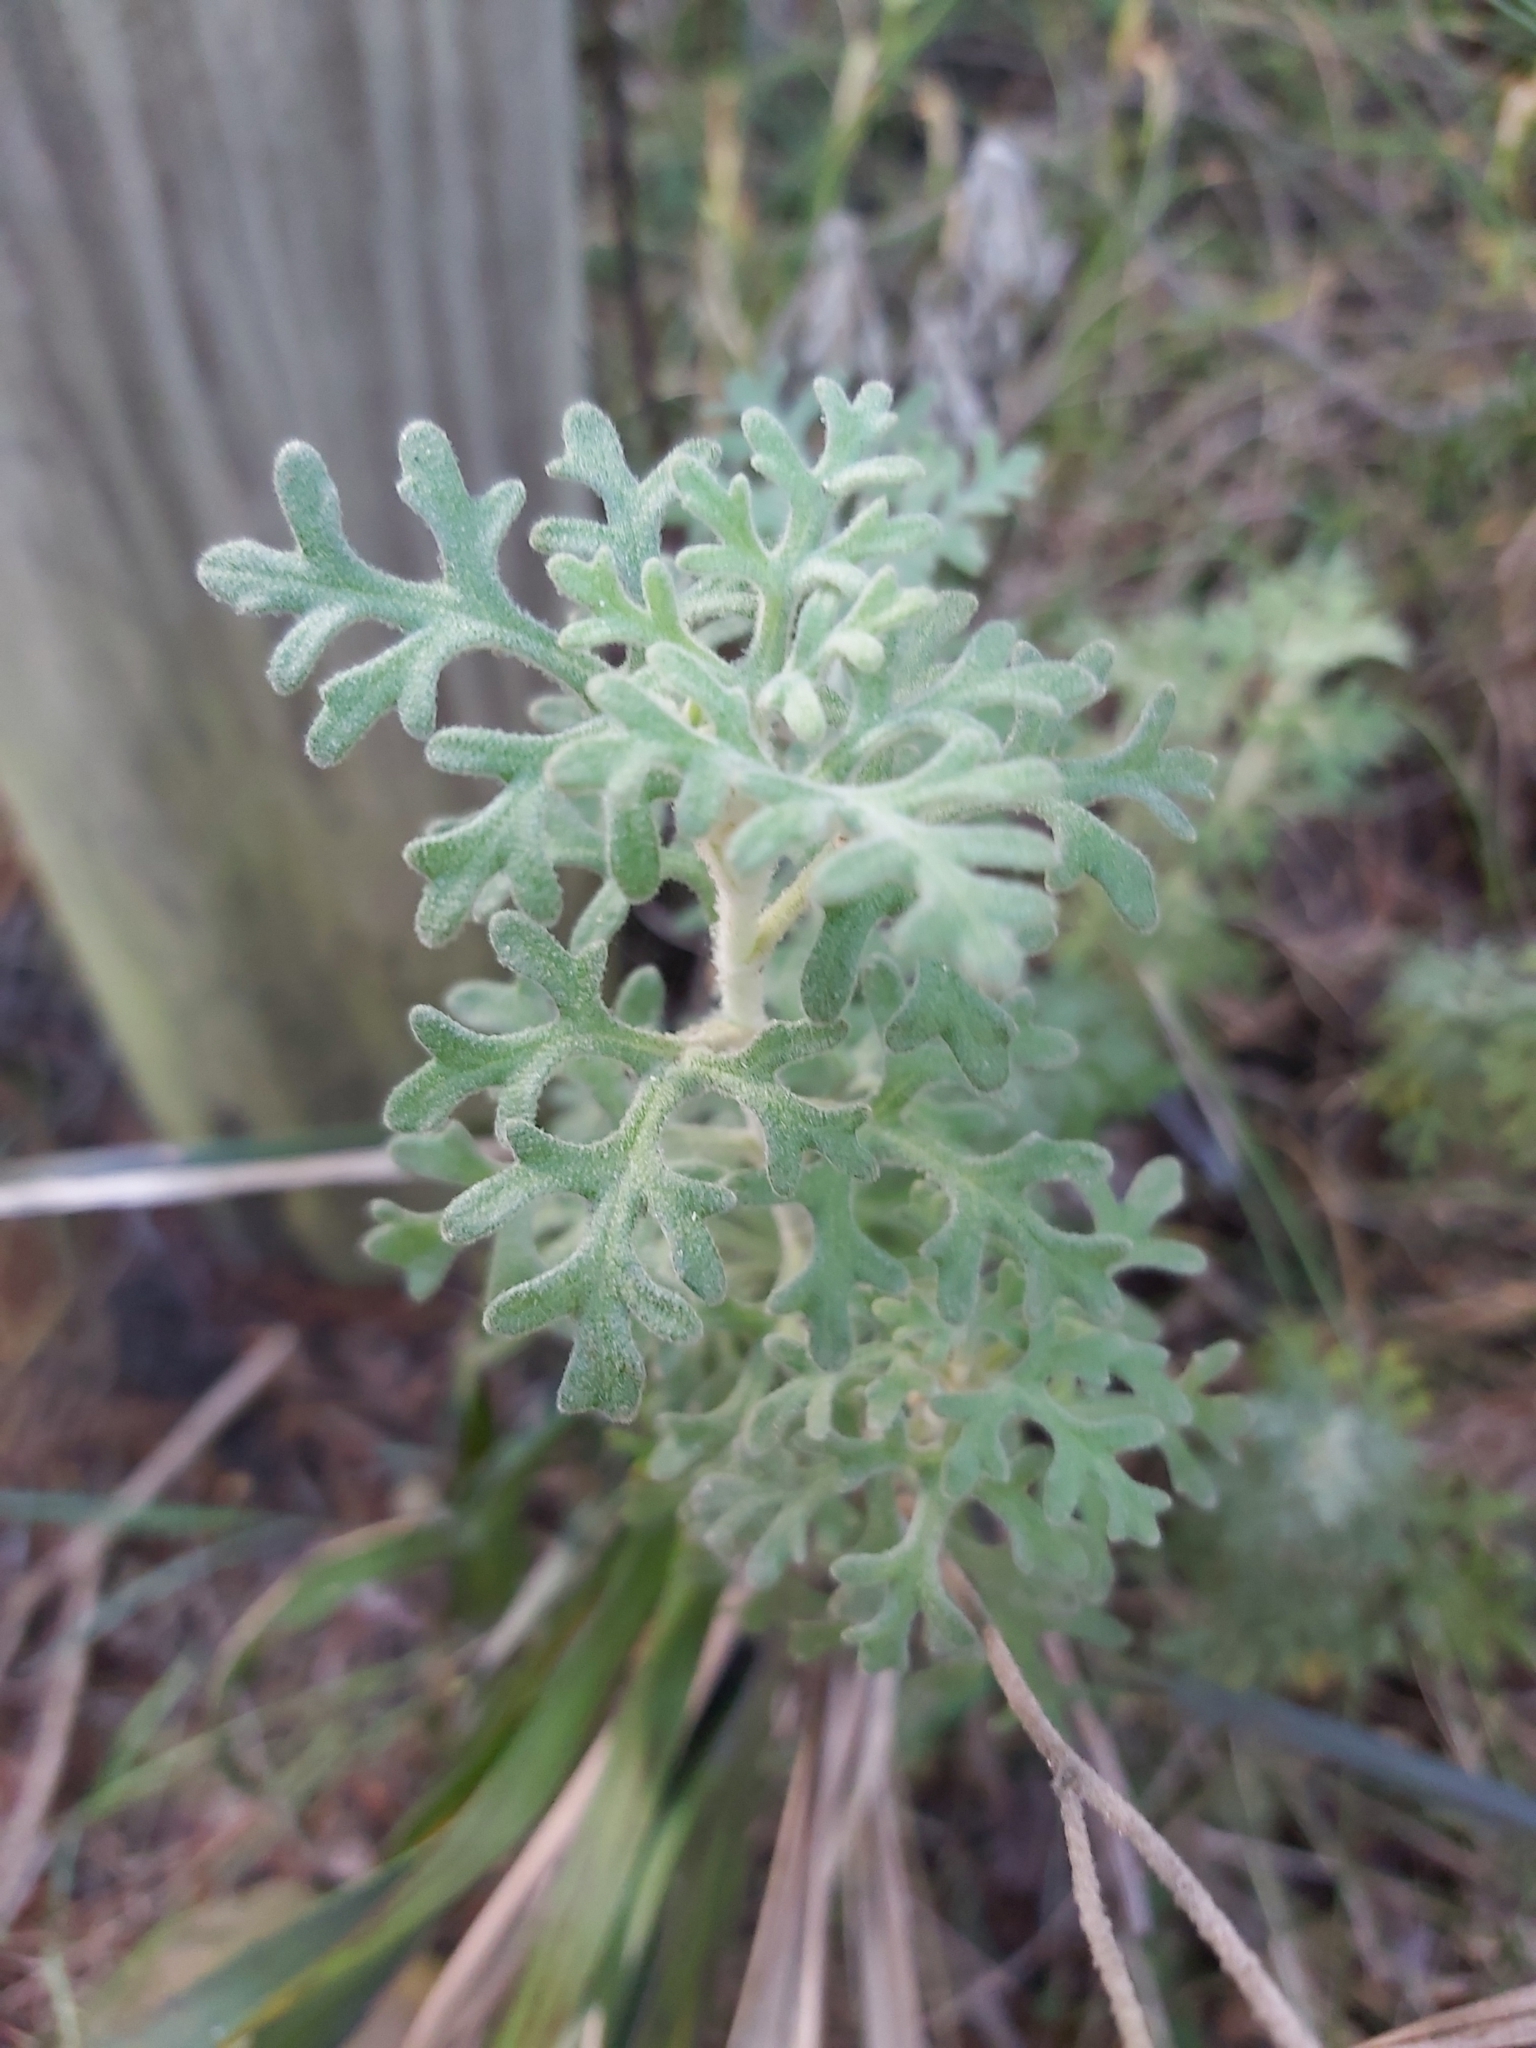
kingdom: Plantae
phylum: Tracheophyta
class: Magnoliopsida
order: Apiales
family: Apiaceae
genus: Actinotus
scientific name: Actinotus helianthi
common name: Flannel-flower
